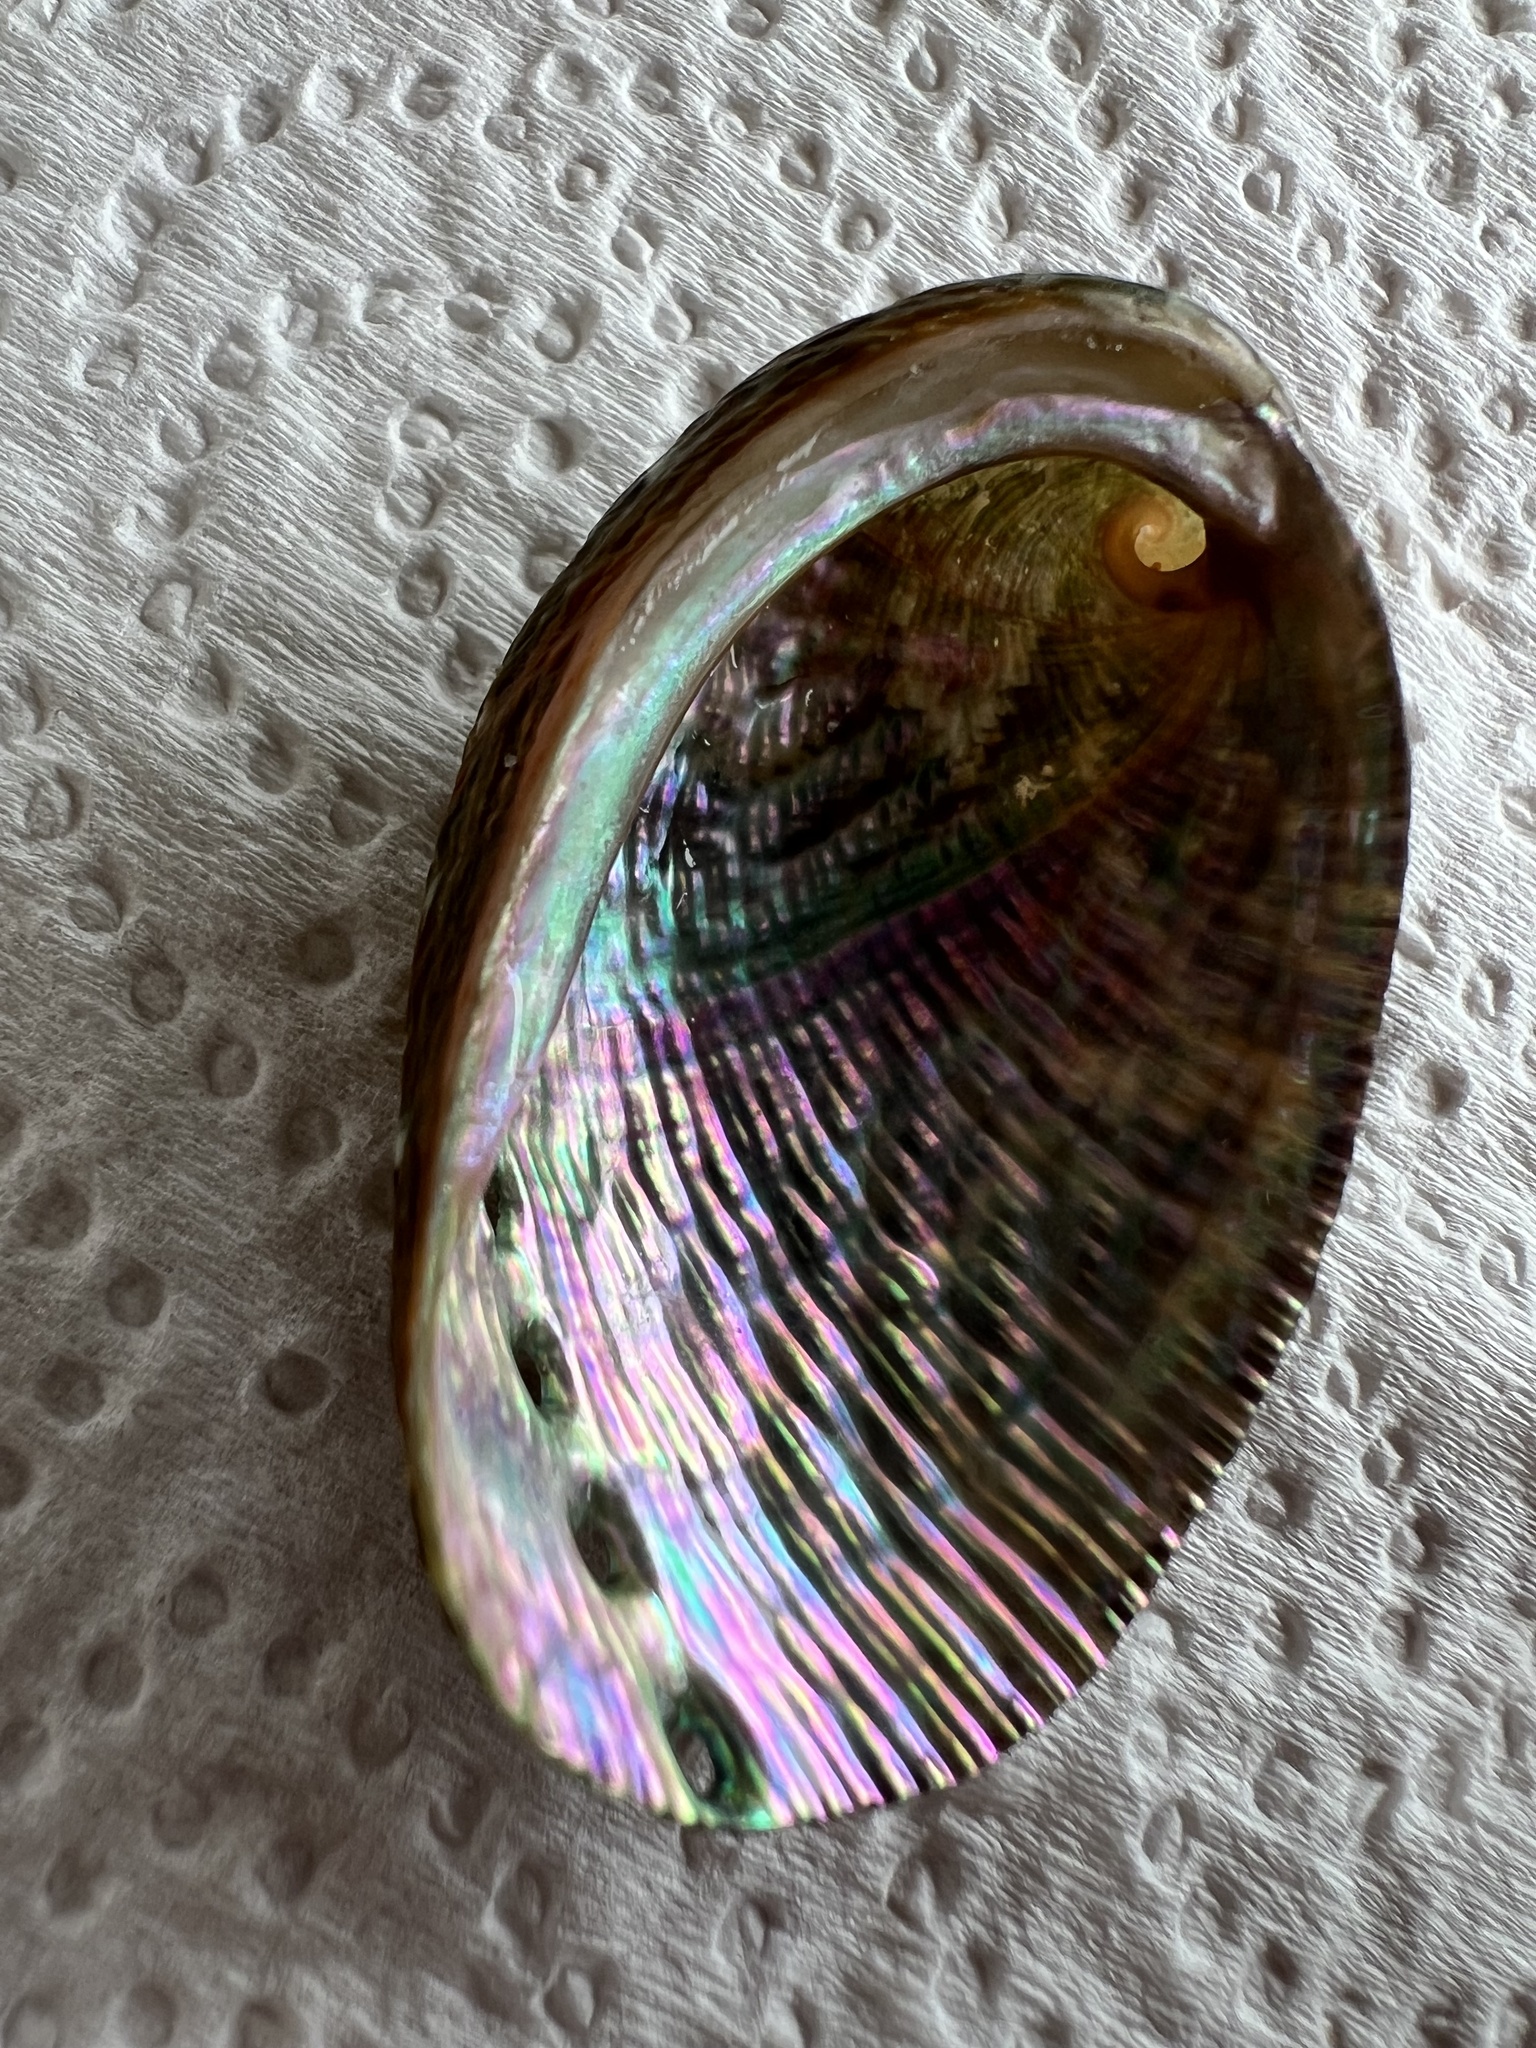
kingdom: Animalia
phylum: Mollusca
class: Gastropoda
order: Lepetellida
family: Haliotidae
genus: Haliotis
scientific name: Haliotis virginea
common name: Whitefoot paua
